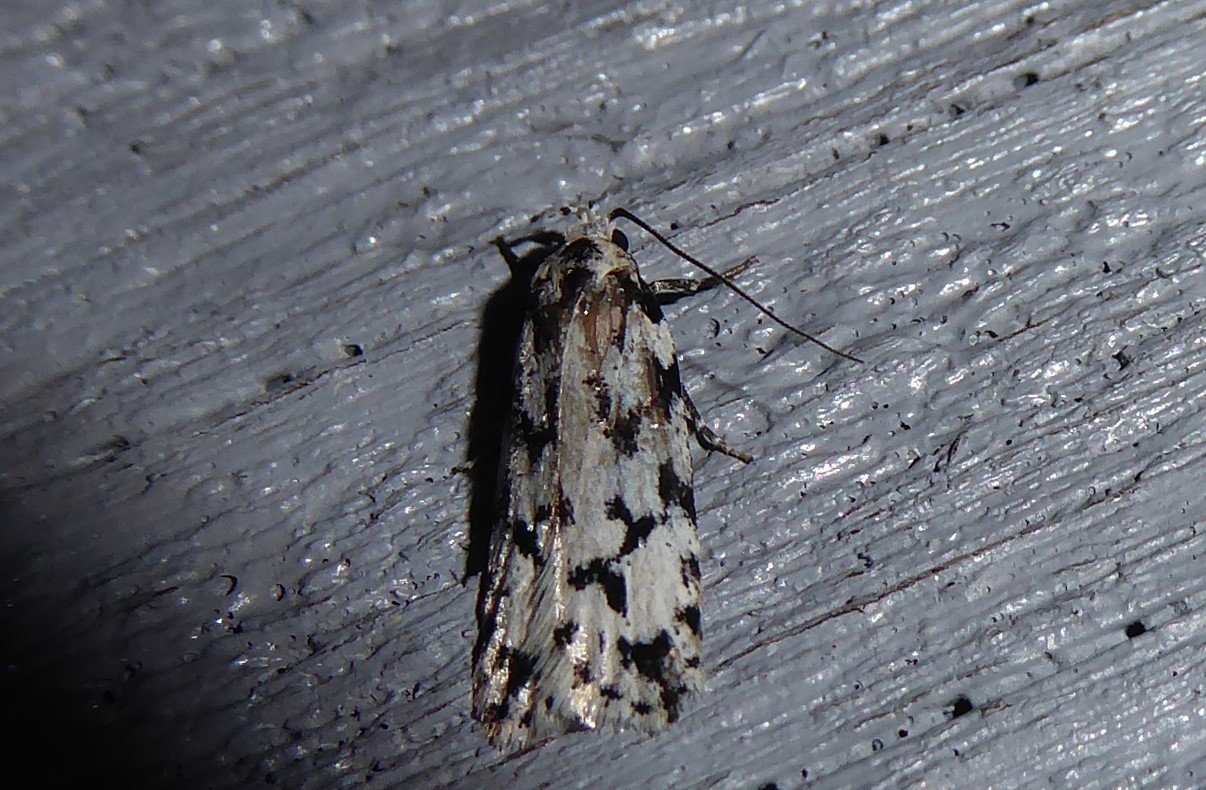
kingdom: Animalia
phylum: Arthropoda
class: Insecta
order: Lepidoptera
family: Oecophoridae
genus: Izatha
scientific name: Izatha katadiktya
